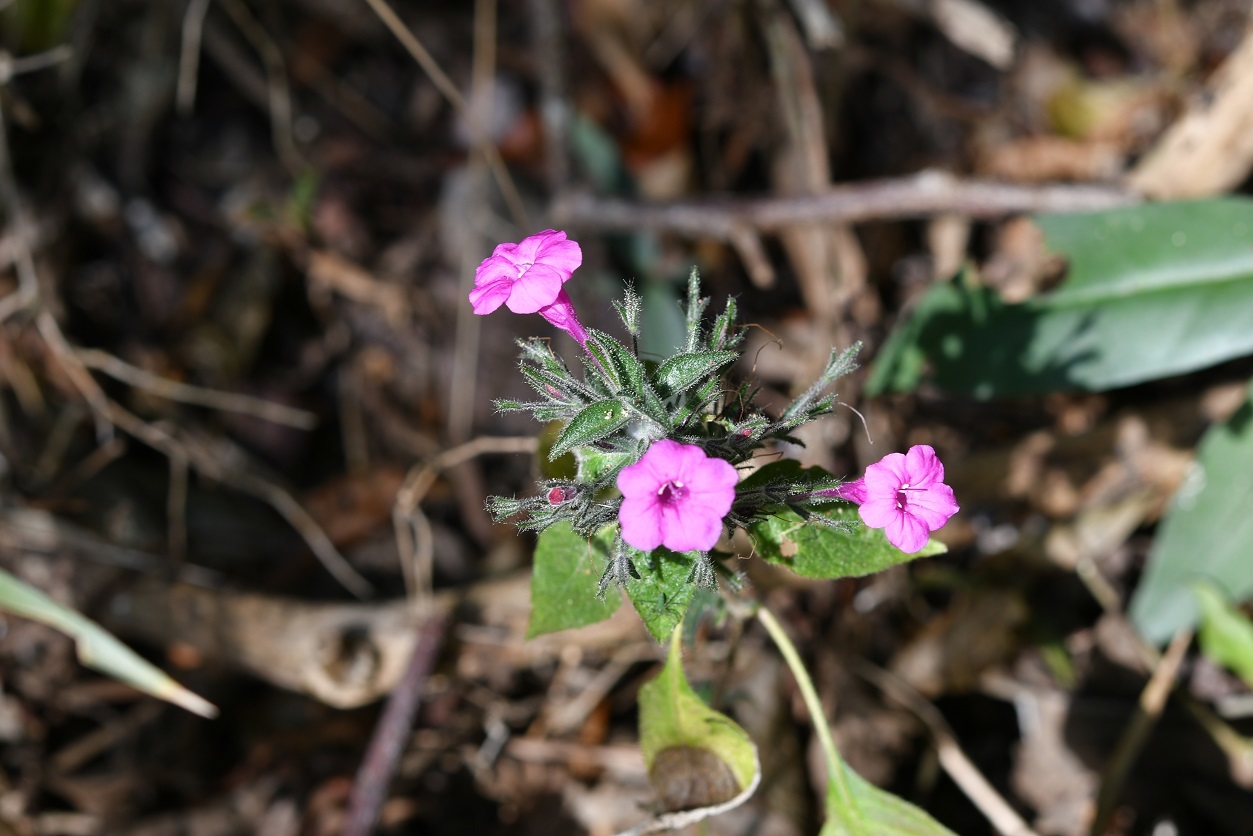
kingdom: Plantae
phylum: Tracheophyta
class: Magnoliopsida
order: Lamiales
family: Acanthaceae
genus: Ruellia
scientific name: Ruellia inundata
